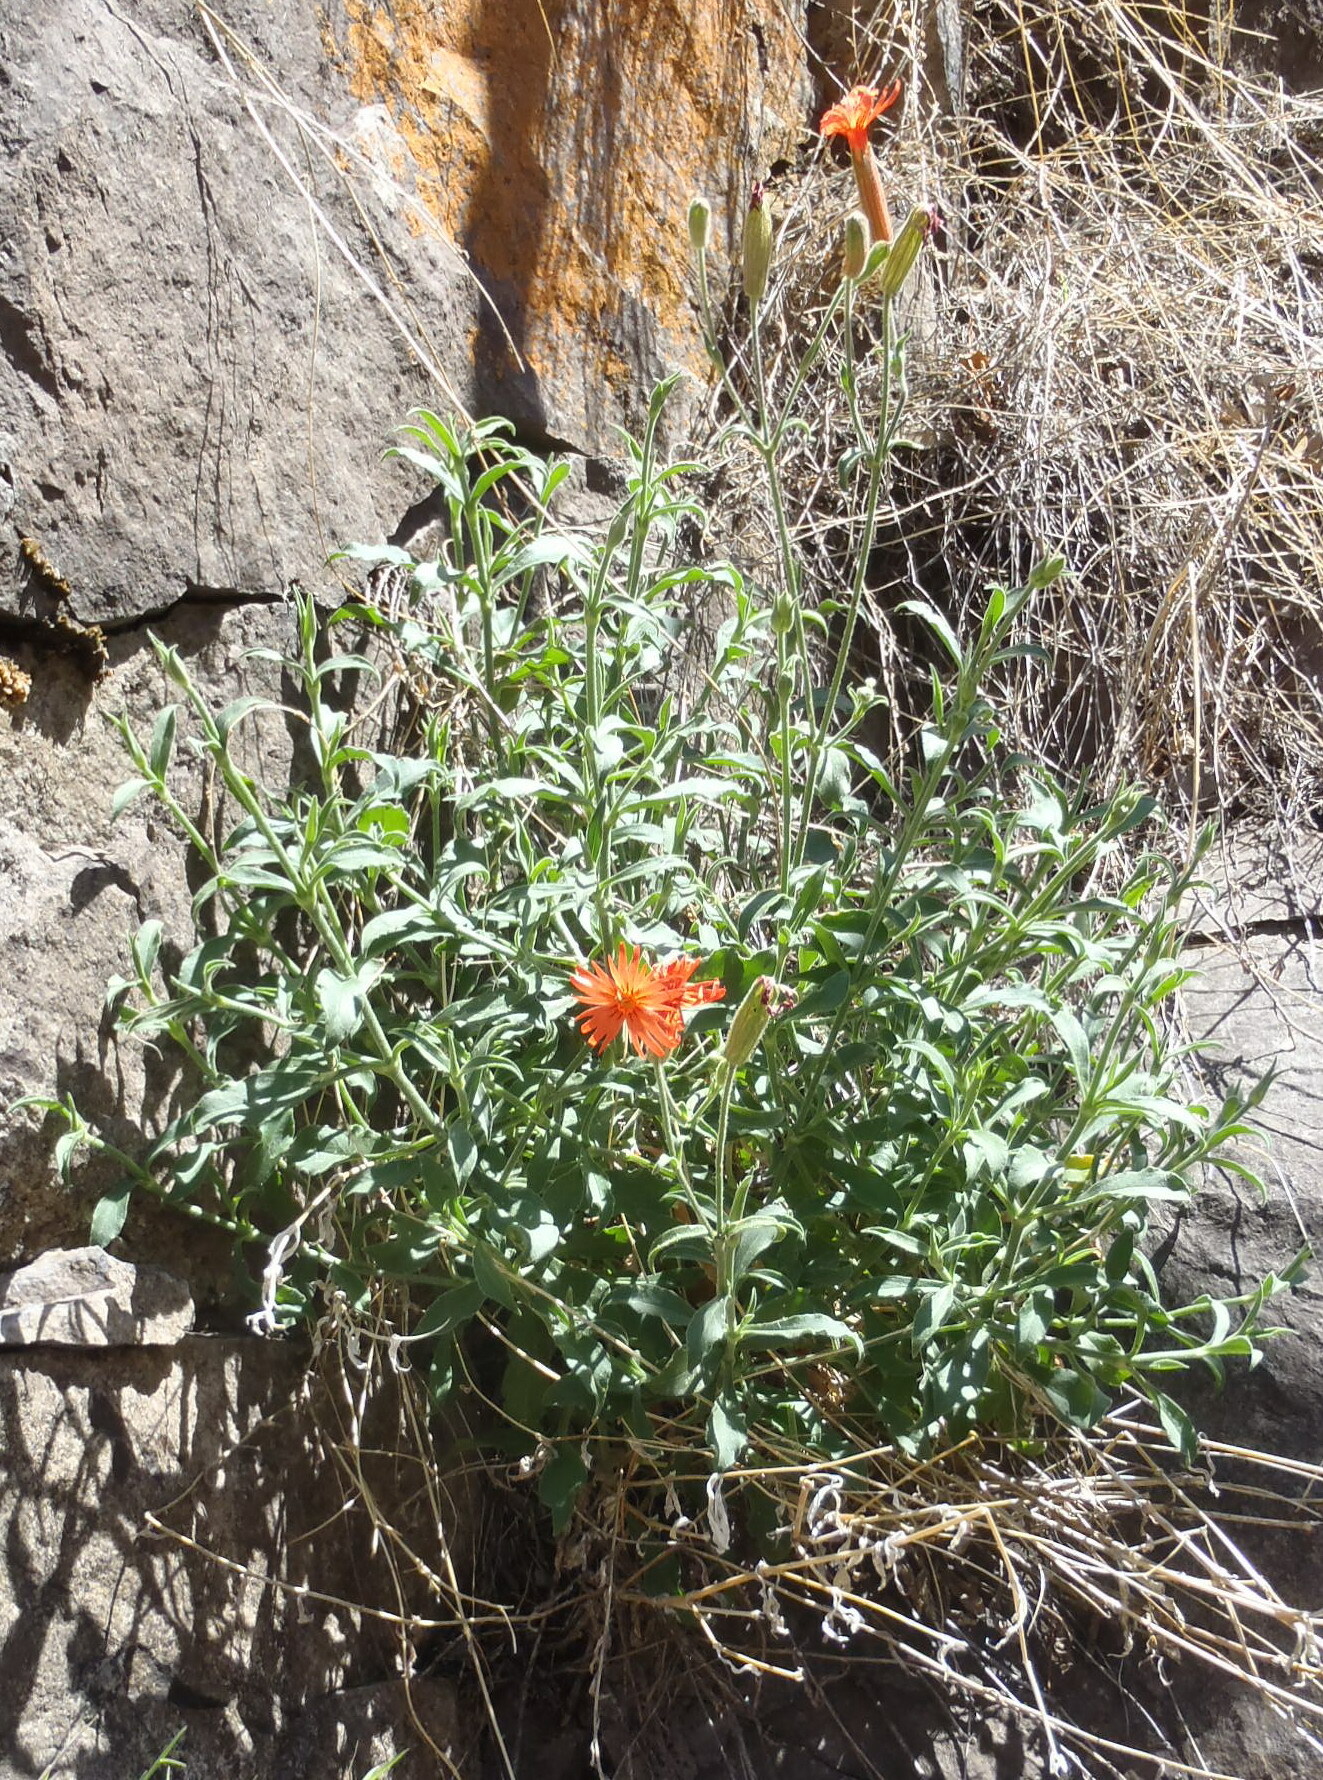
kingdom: Plantae
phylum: Tracheophyta
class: Magnoliopsida
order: Caryophyllales
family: Caryophyllaceae
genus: Silene
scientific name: Silene laciniata
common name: Indian-pink
